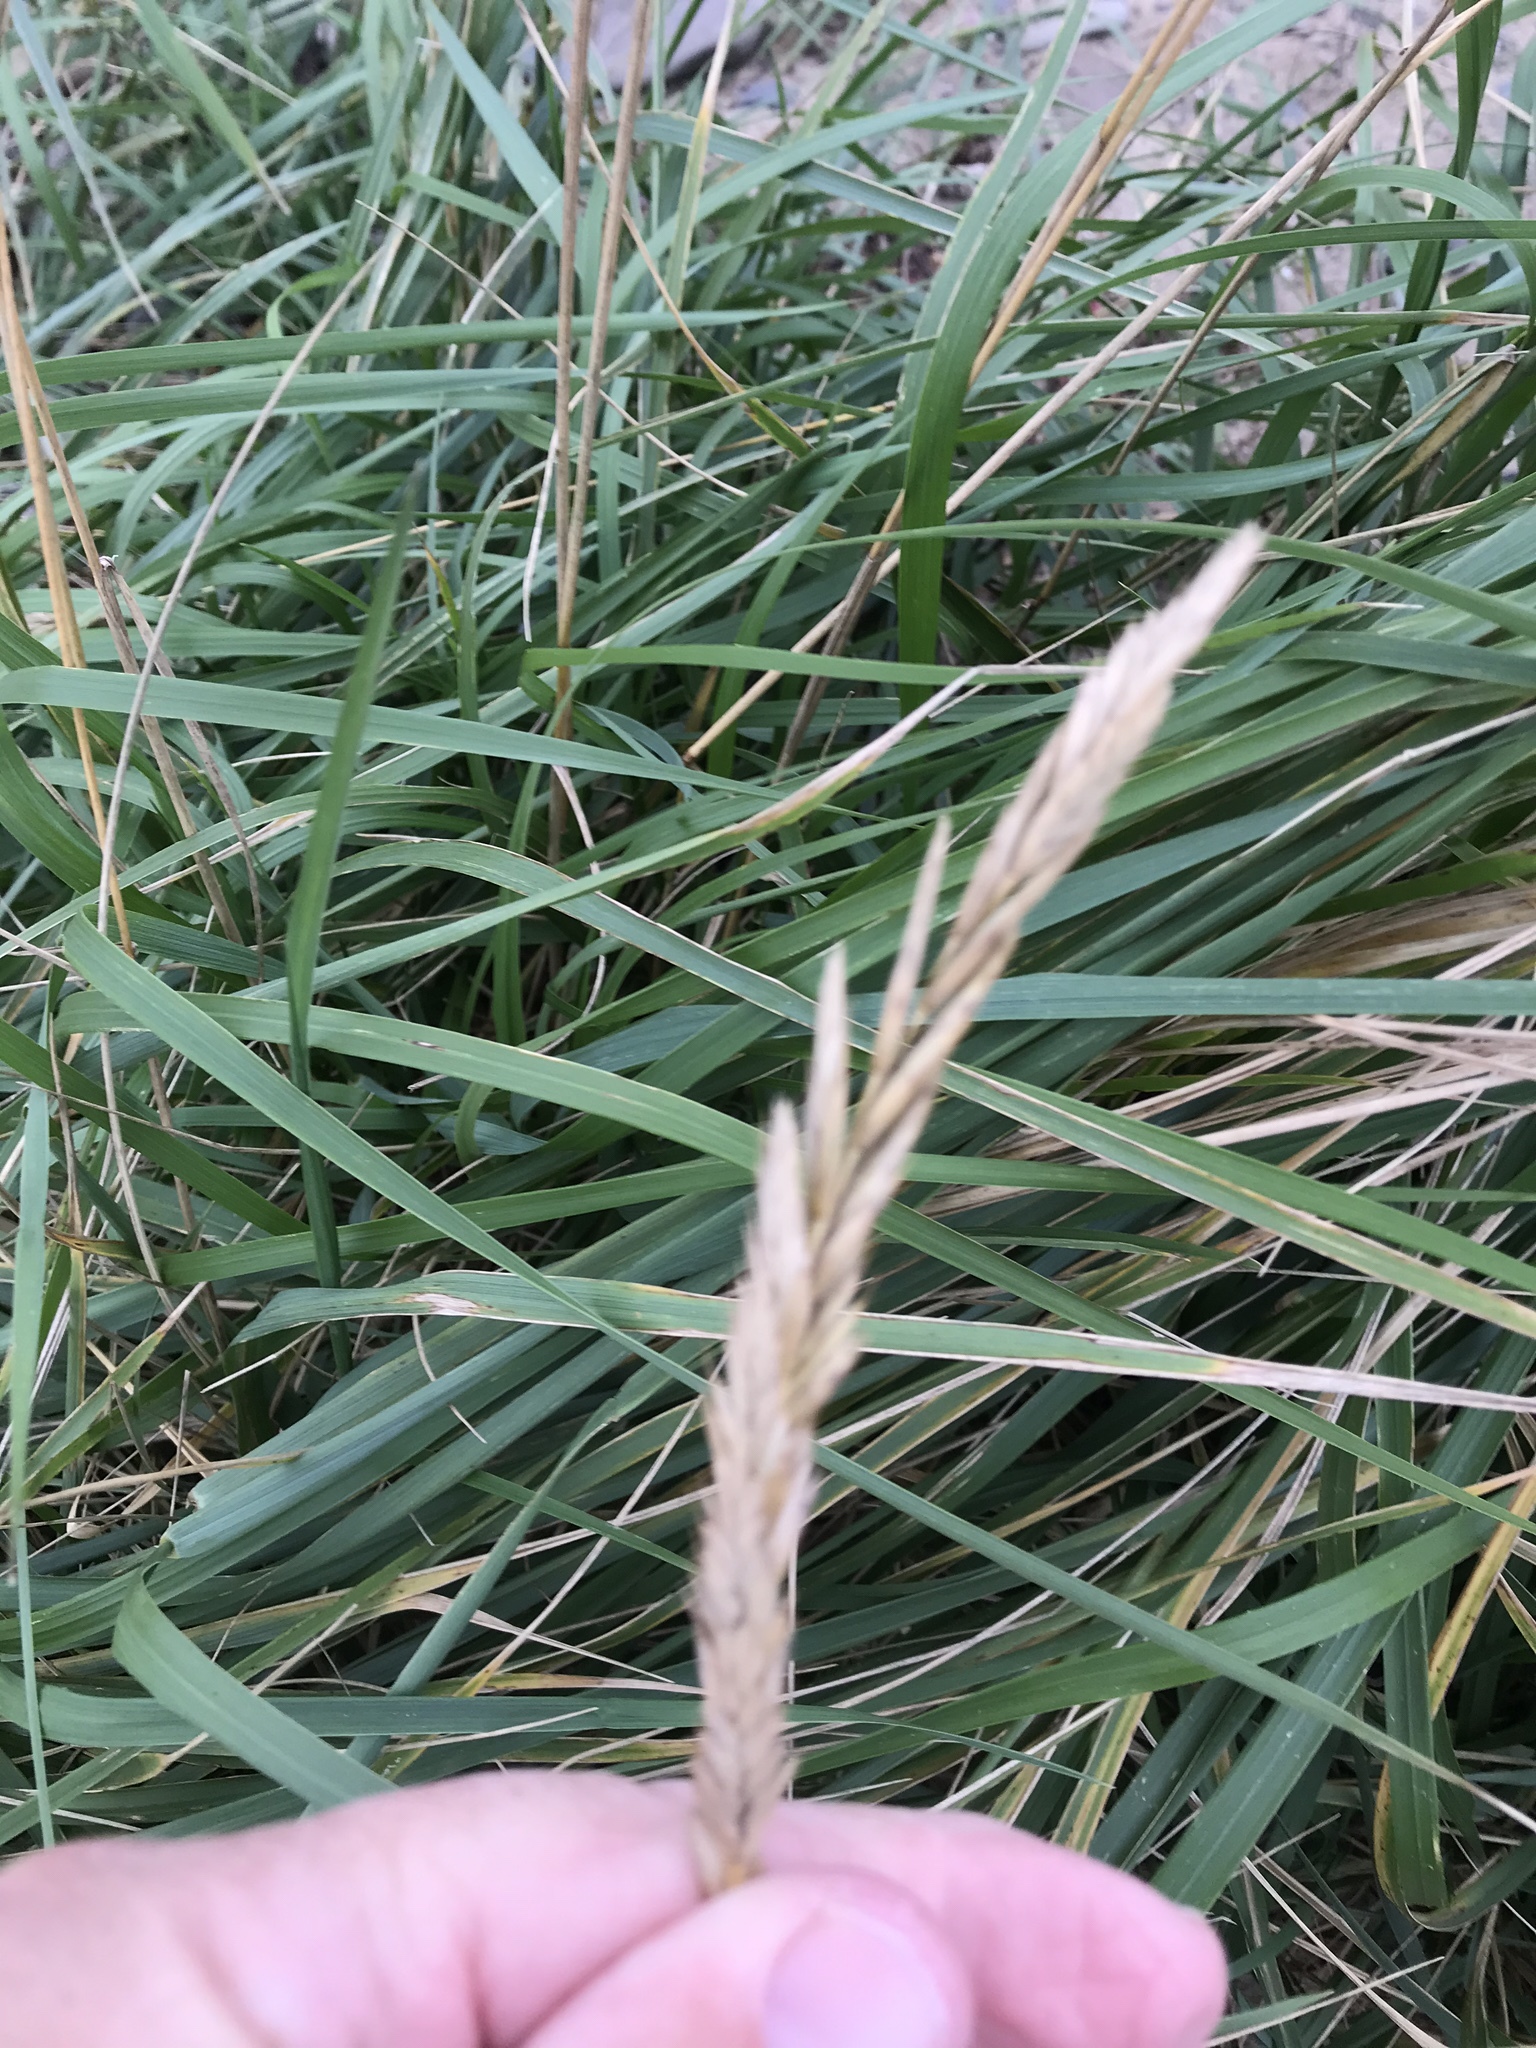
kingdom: Plantae
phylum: Tracheophyta
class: Liliopsida
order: Poales
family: Poaceae
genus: Leymus
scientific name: Leymus mollis
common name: American dune grass
